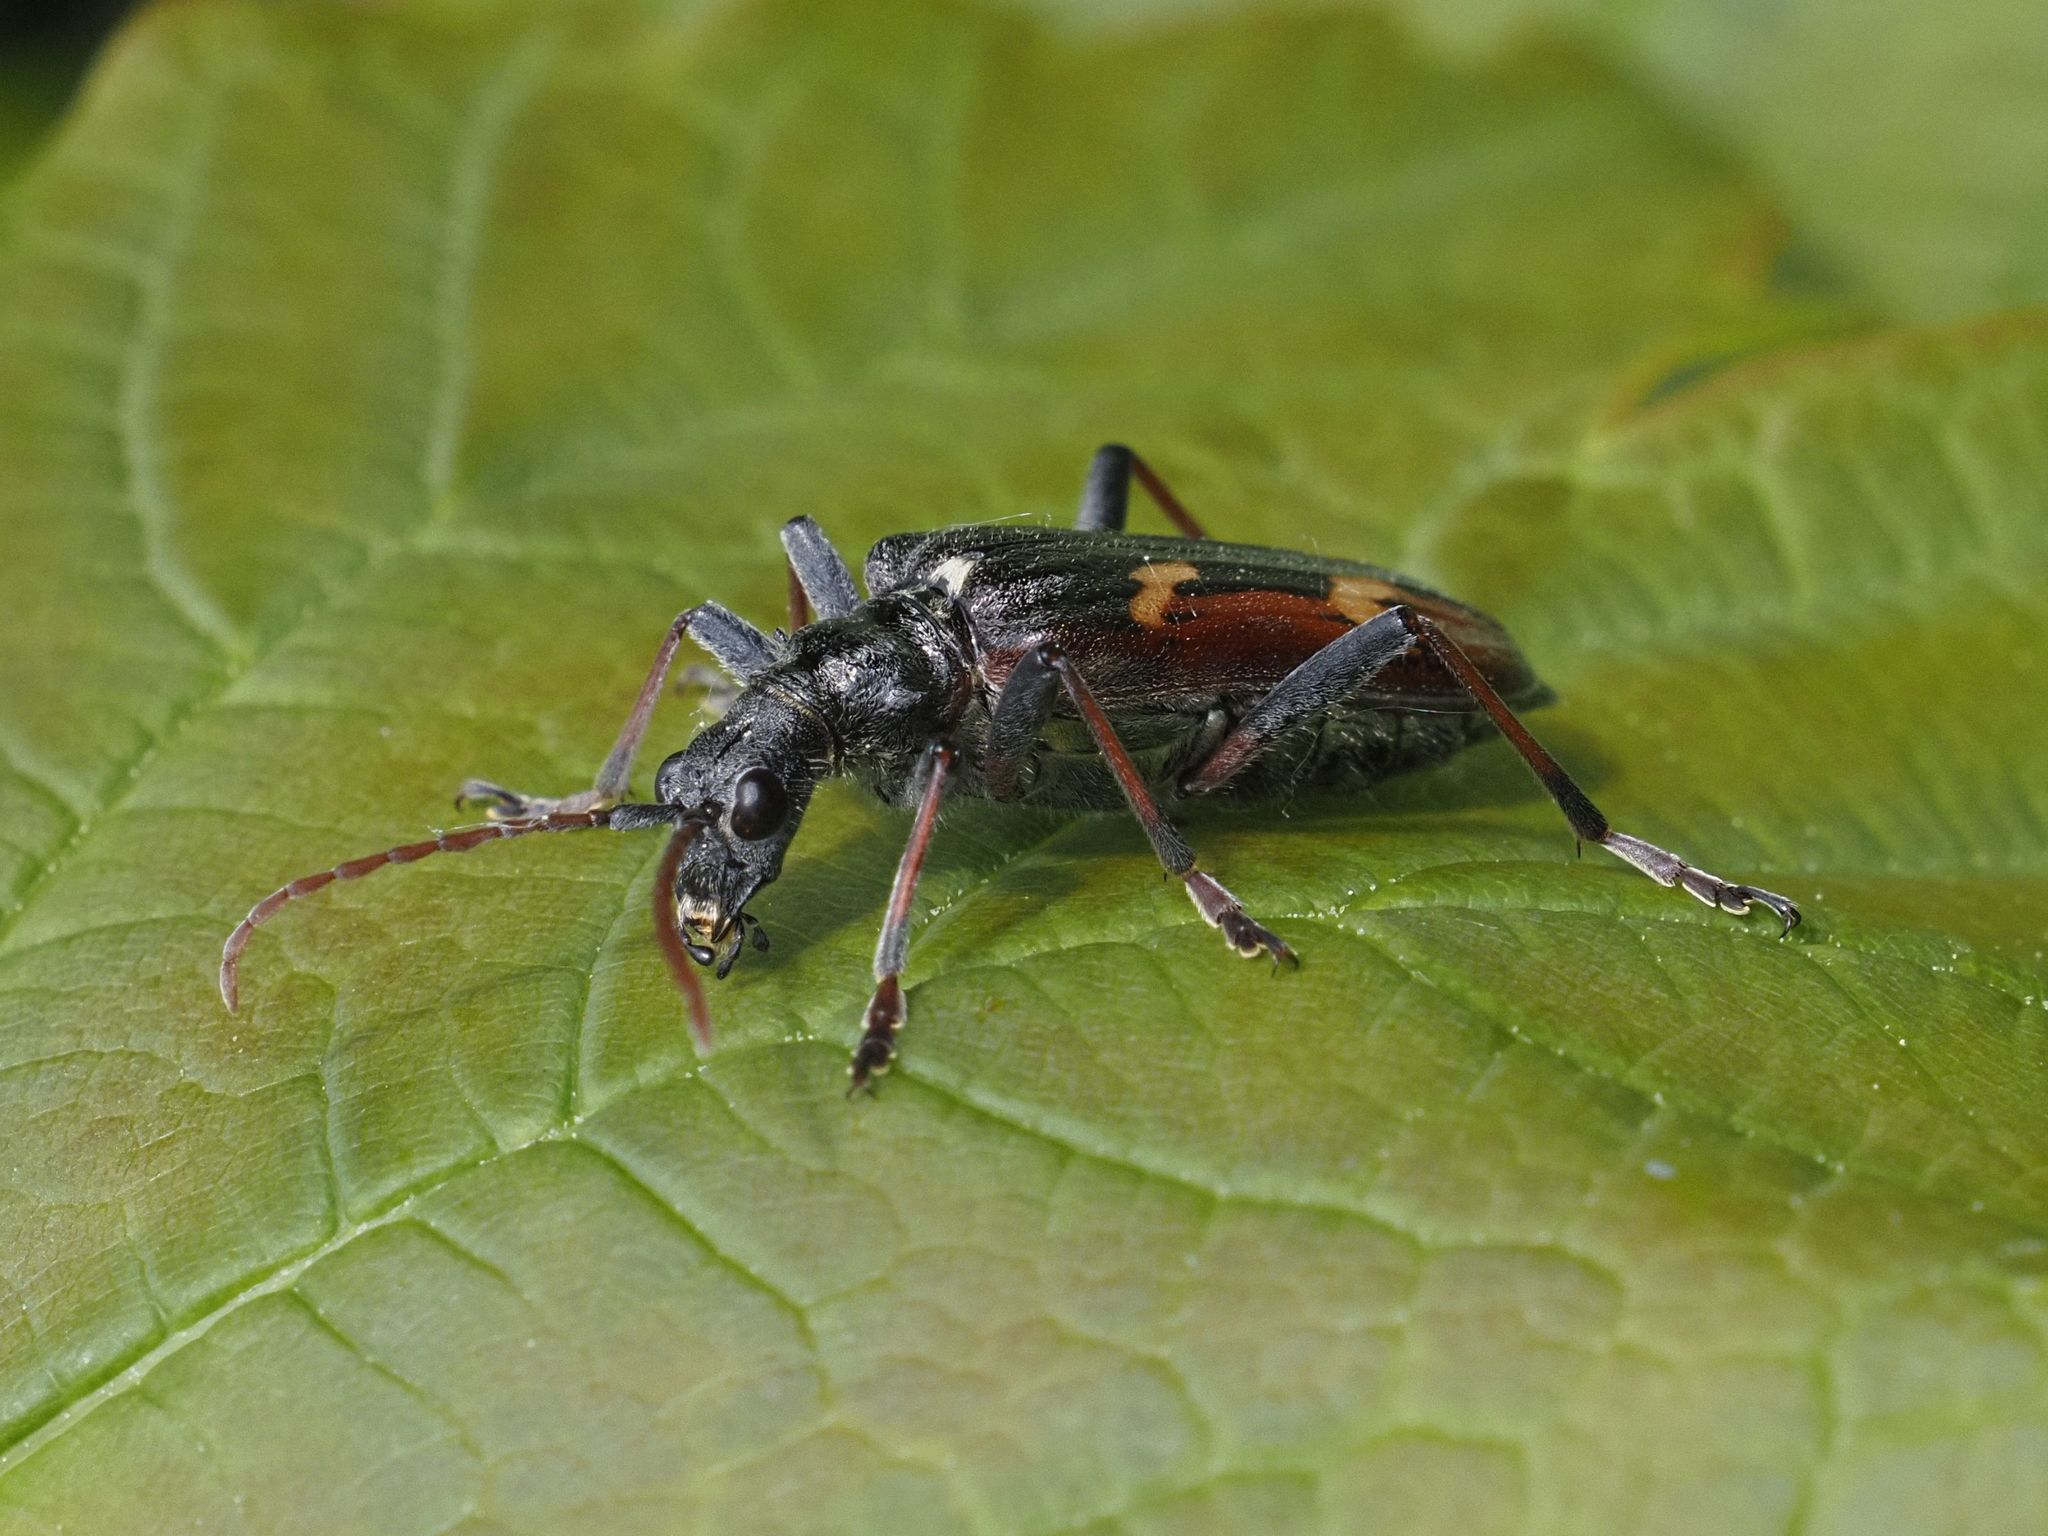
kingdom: Animalia
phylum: Arthropoda
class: Insecta
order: Coleoptera
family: Cerambycidae
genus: Rhagium
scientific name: Rhagium bifasciatum
